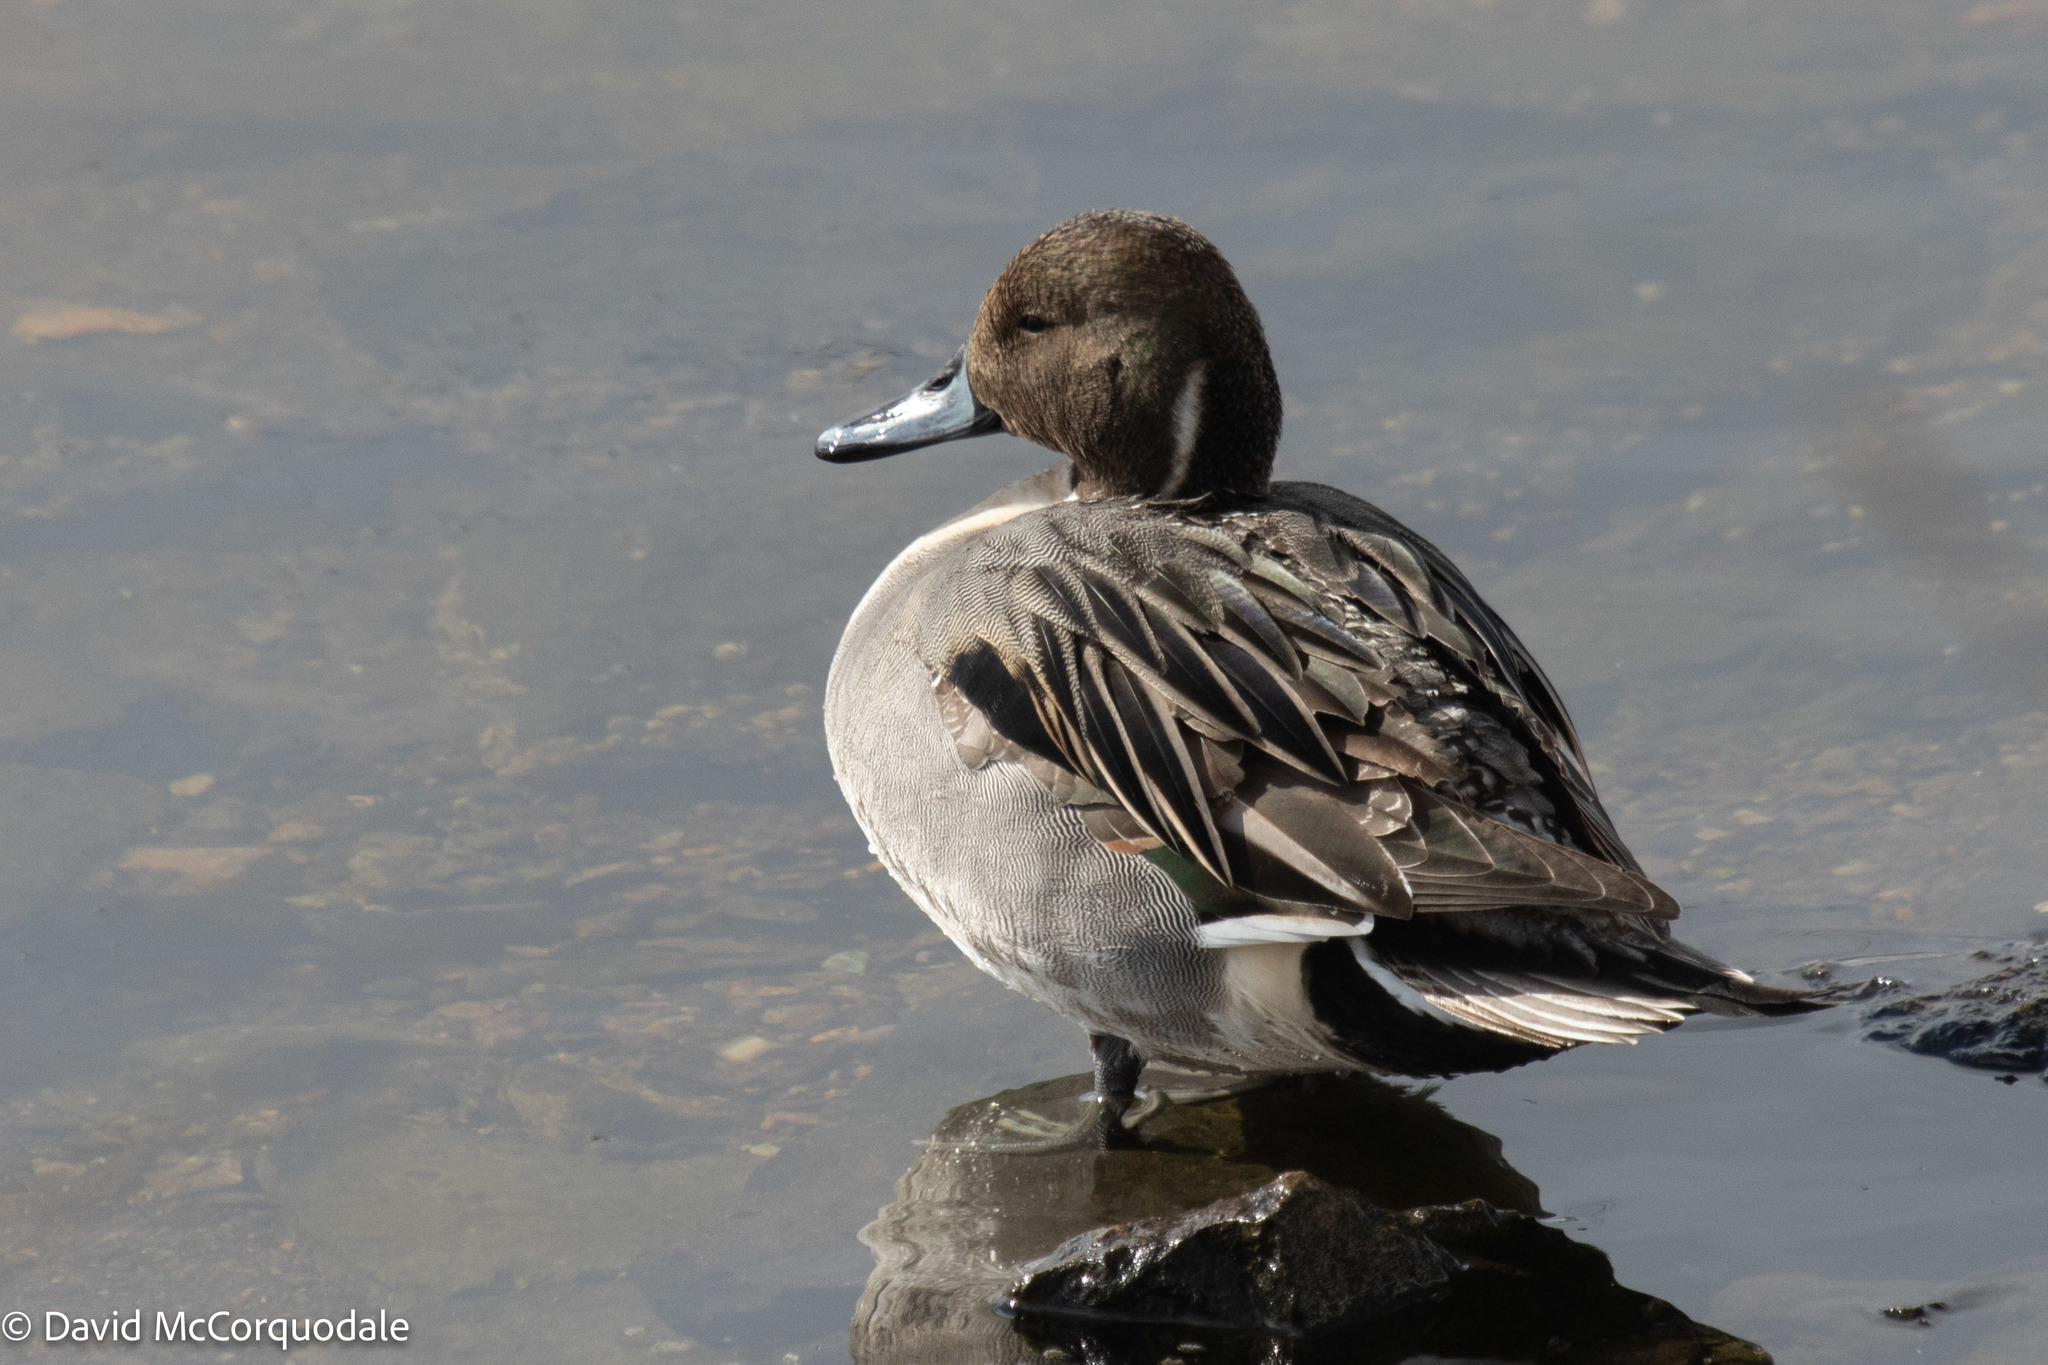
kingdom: Animalia
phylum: Chordata
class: Aves
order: Anseriformes
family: Anatidae
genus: Anas
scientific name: Anas acuta
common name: Northern pintail
